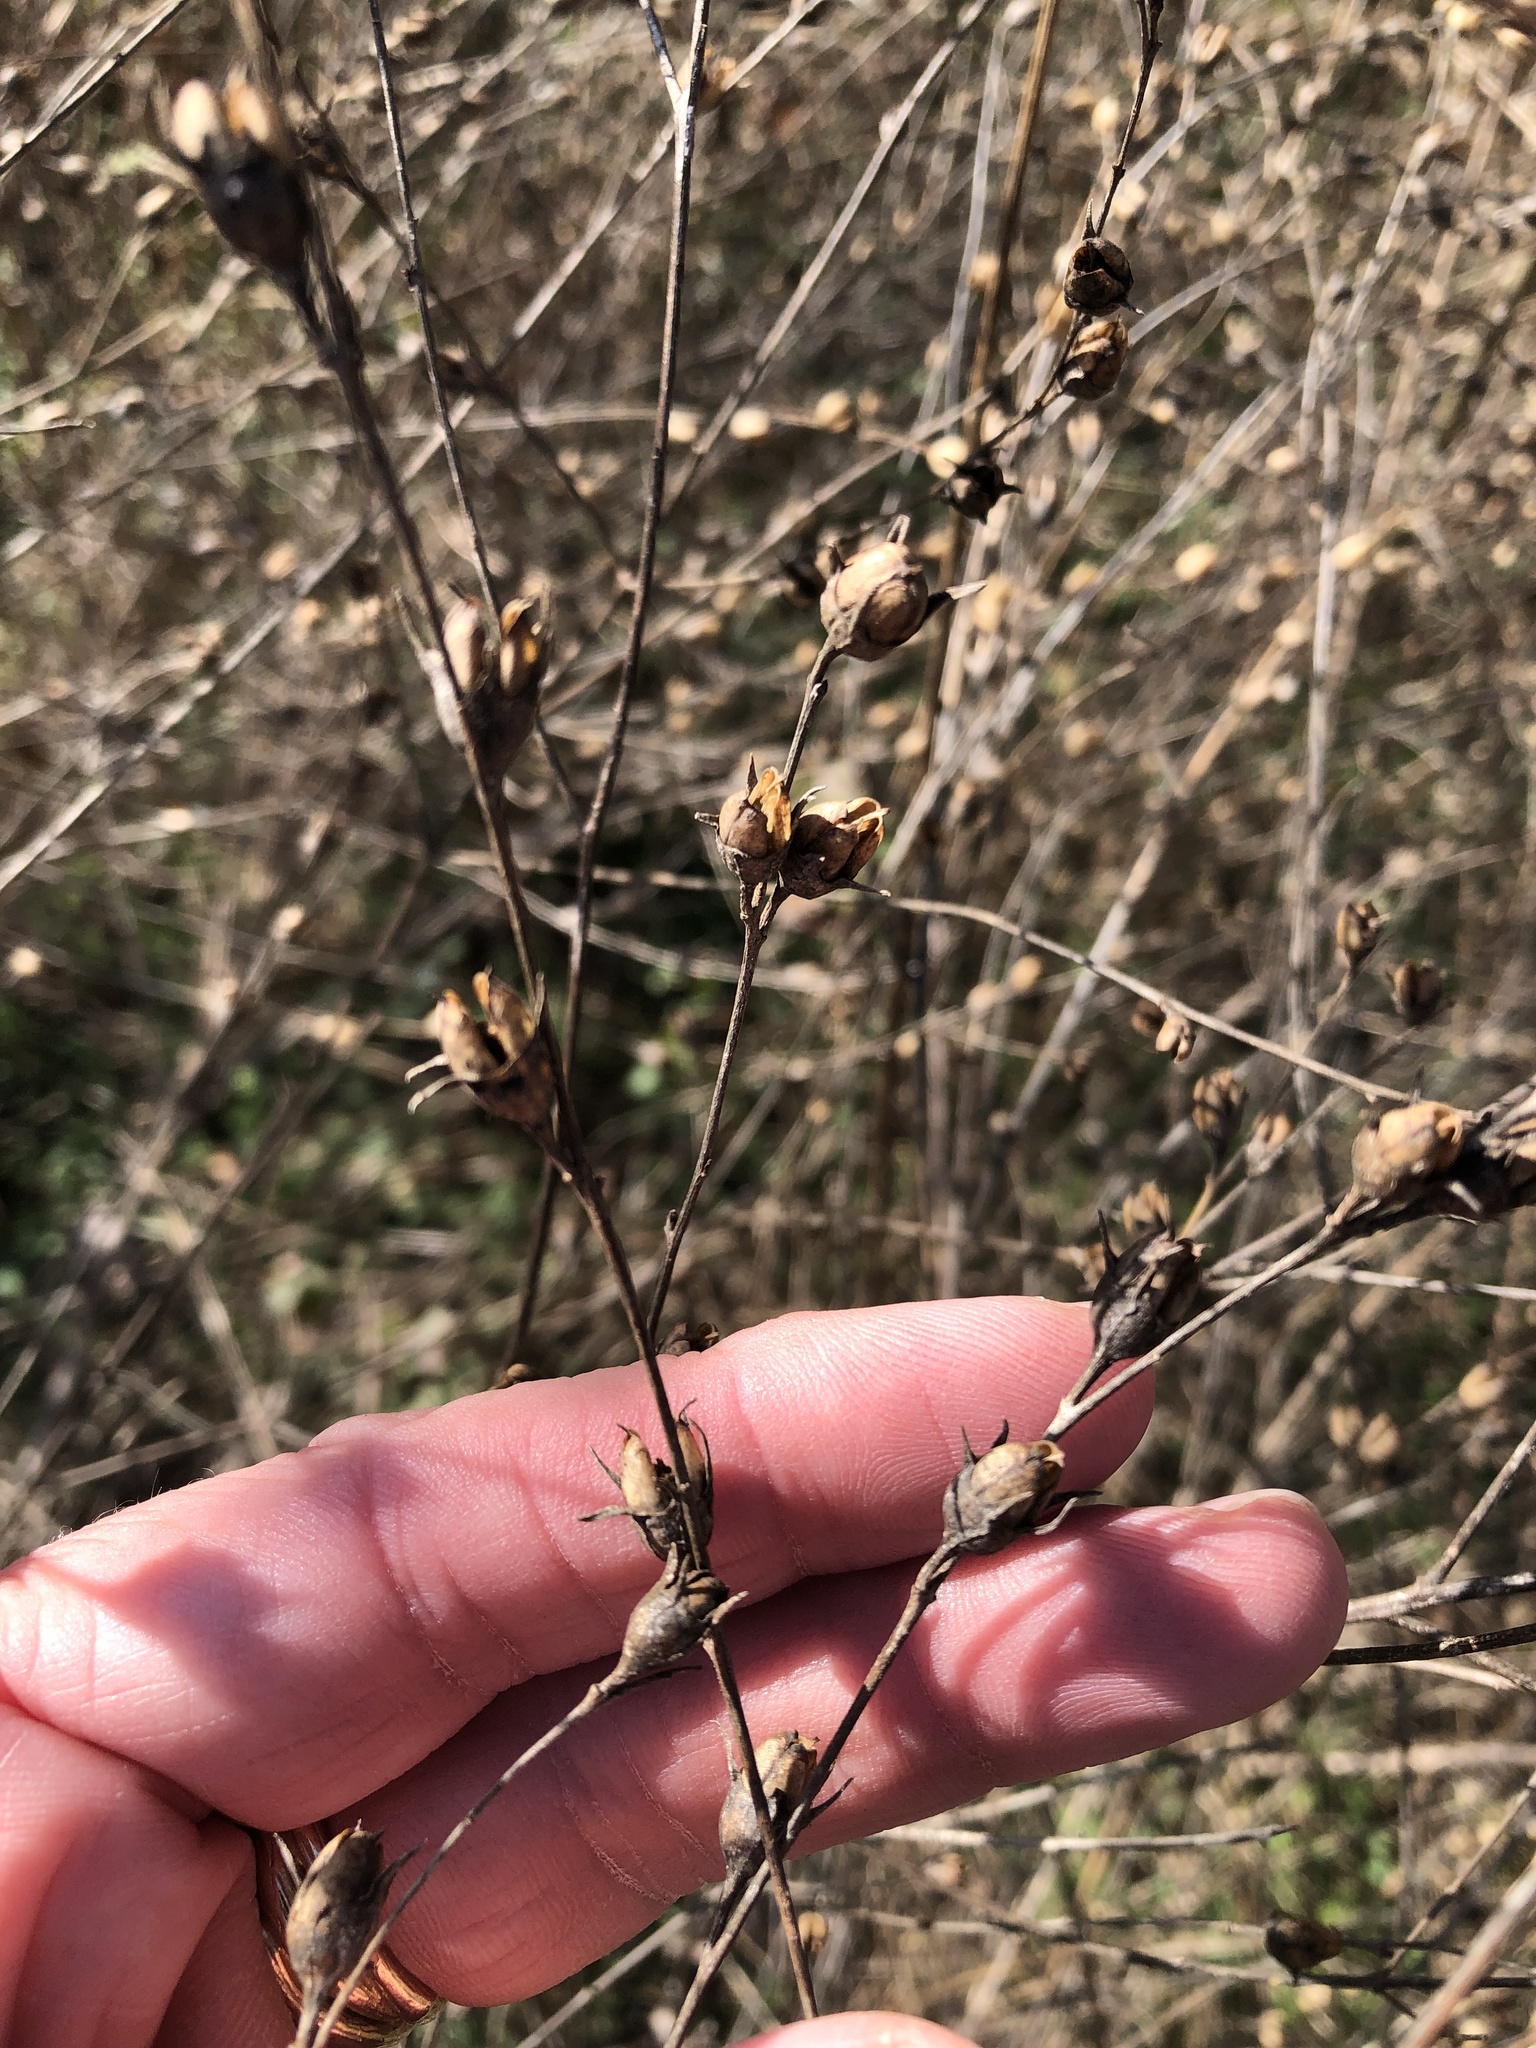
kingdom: Plantae
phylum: Tracheophyta
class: Magnoliopsida
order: Lamiales
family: Orobanchaceae
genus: Agalinis
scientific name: Agalinis heterophylla
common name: Prairie agalinis
